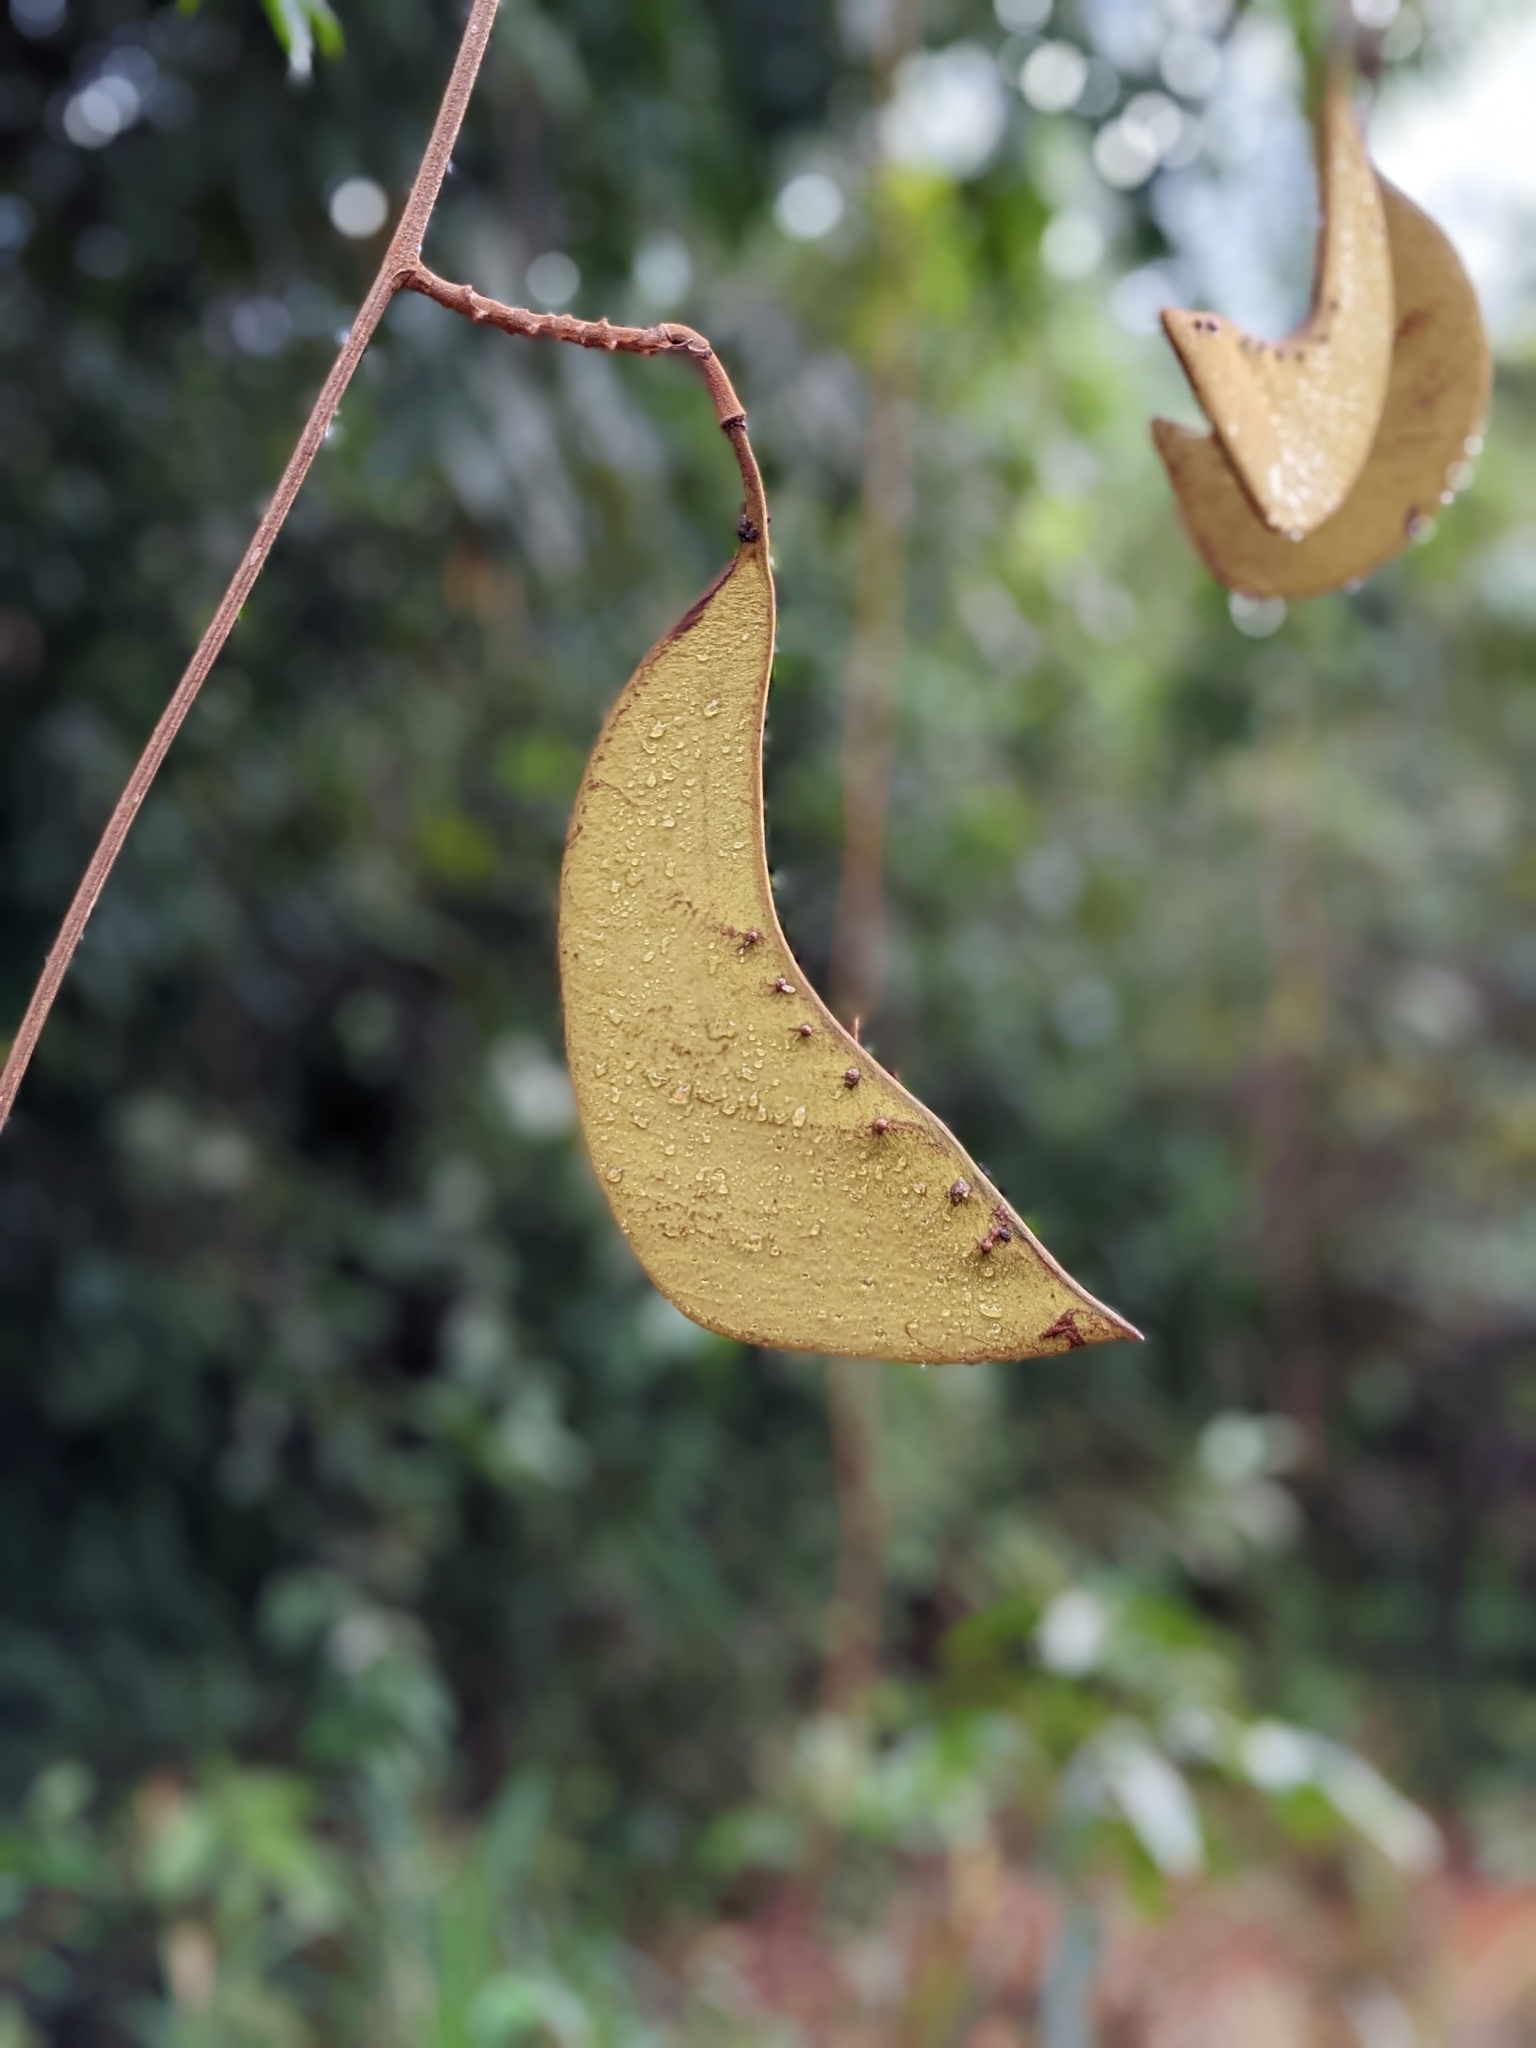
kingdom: Plantae
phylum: Tracheophyta
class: Magnoliopsida
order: Fabales
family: Fabaceae
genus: Eperua
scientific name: Eperua rubiginosa
